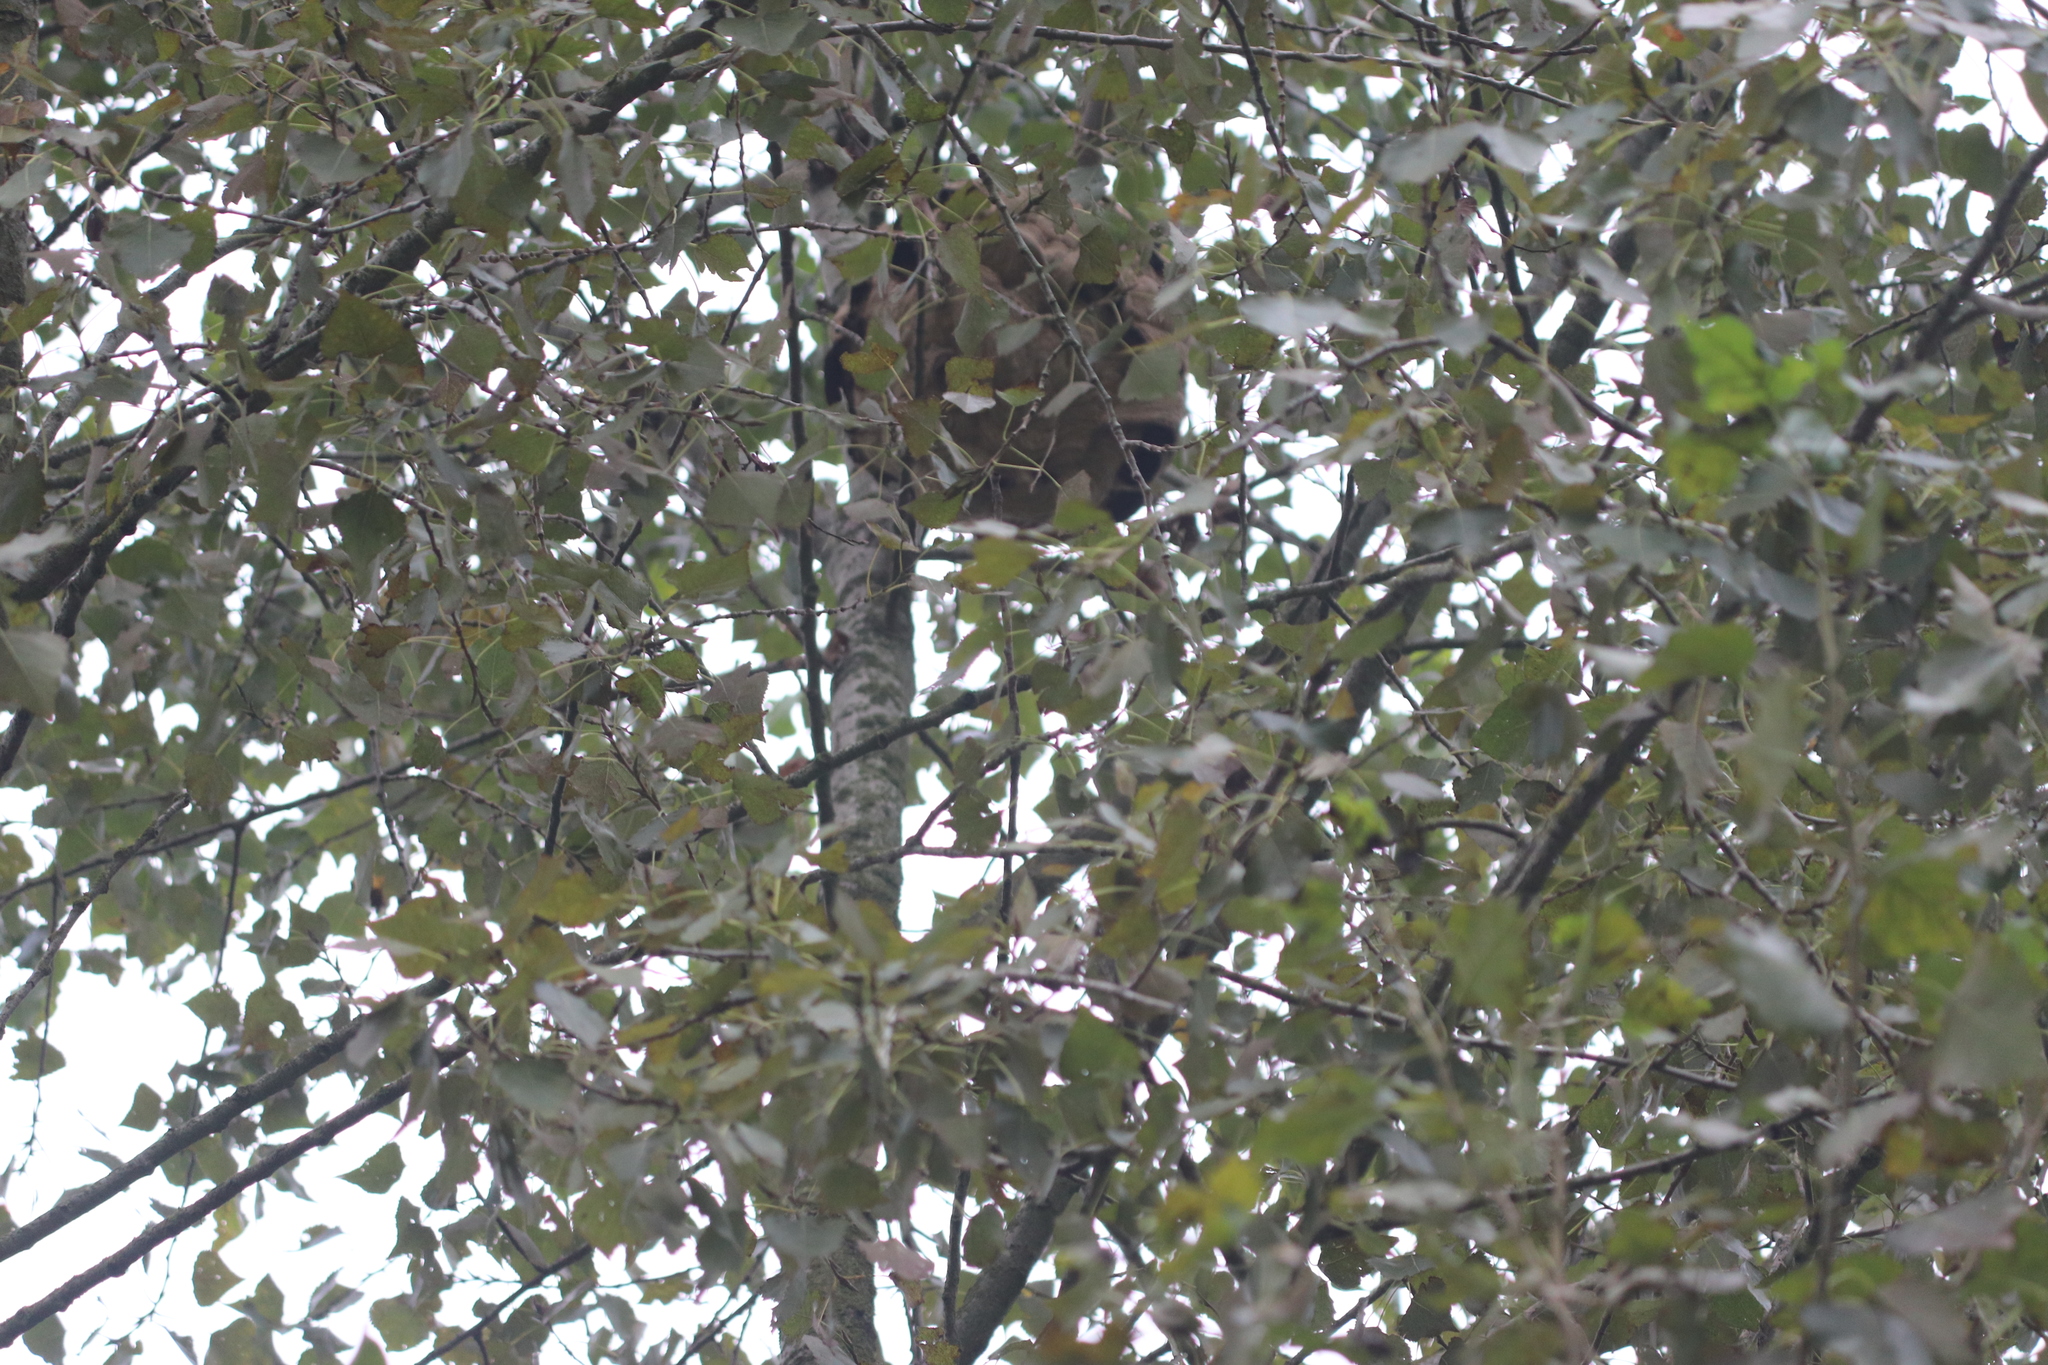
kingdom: Animalia
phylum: Arthropoda
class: Insecta
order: Hymenoptera
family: Vespidae
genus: Vespa
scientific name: Vespa velutina
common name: Asian hornet
